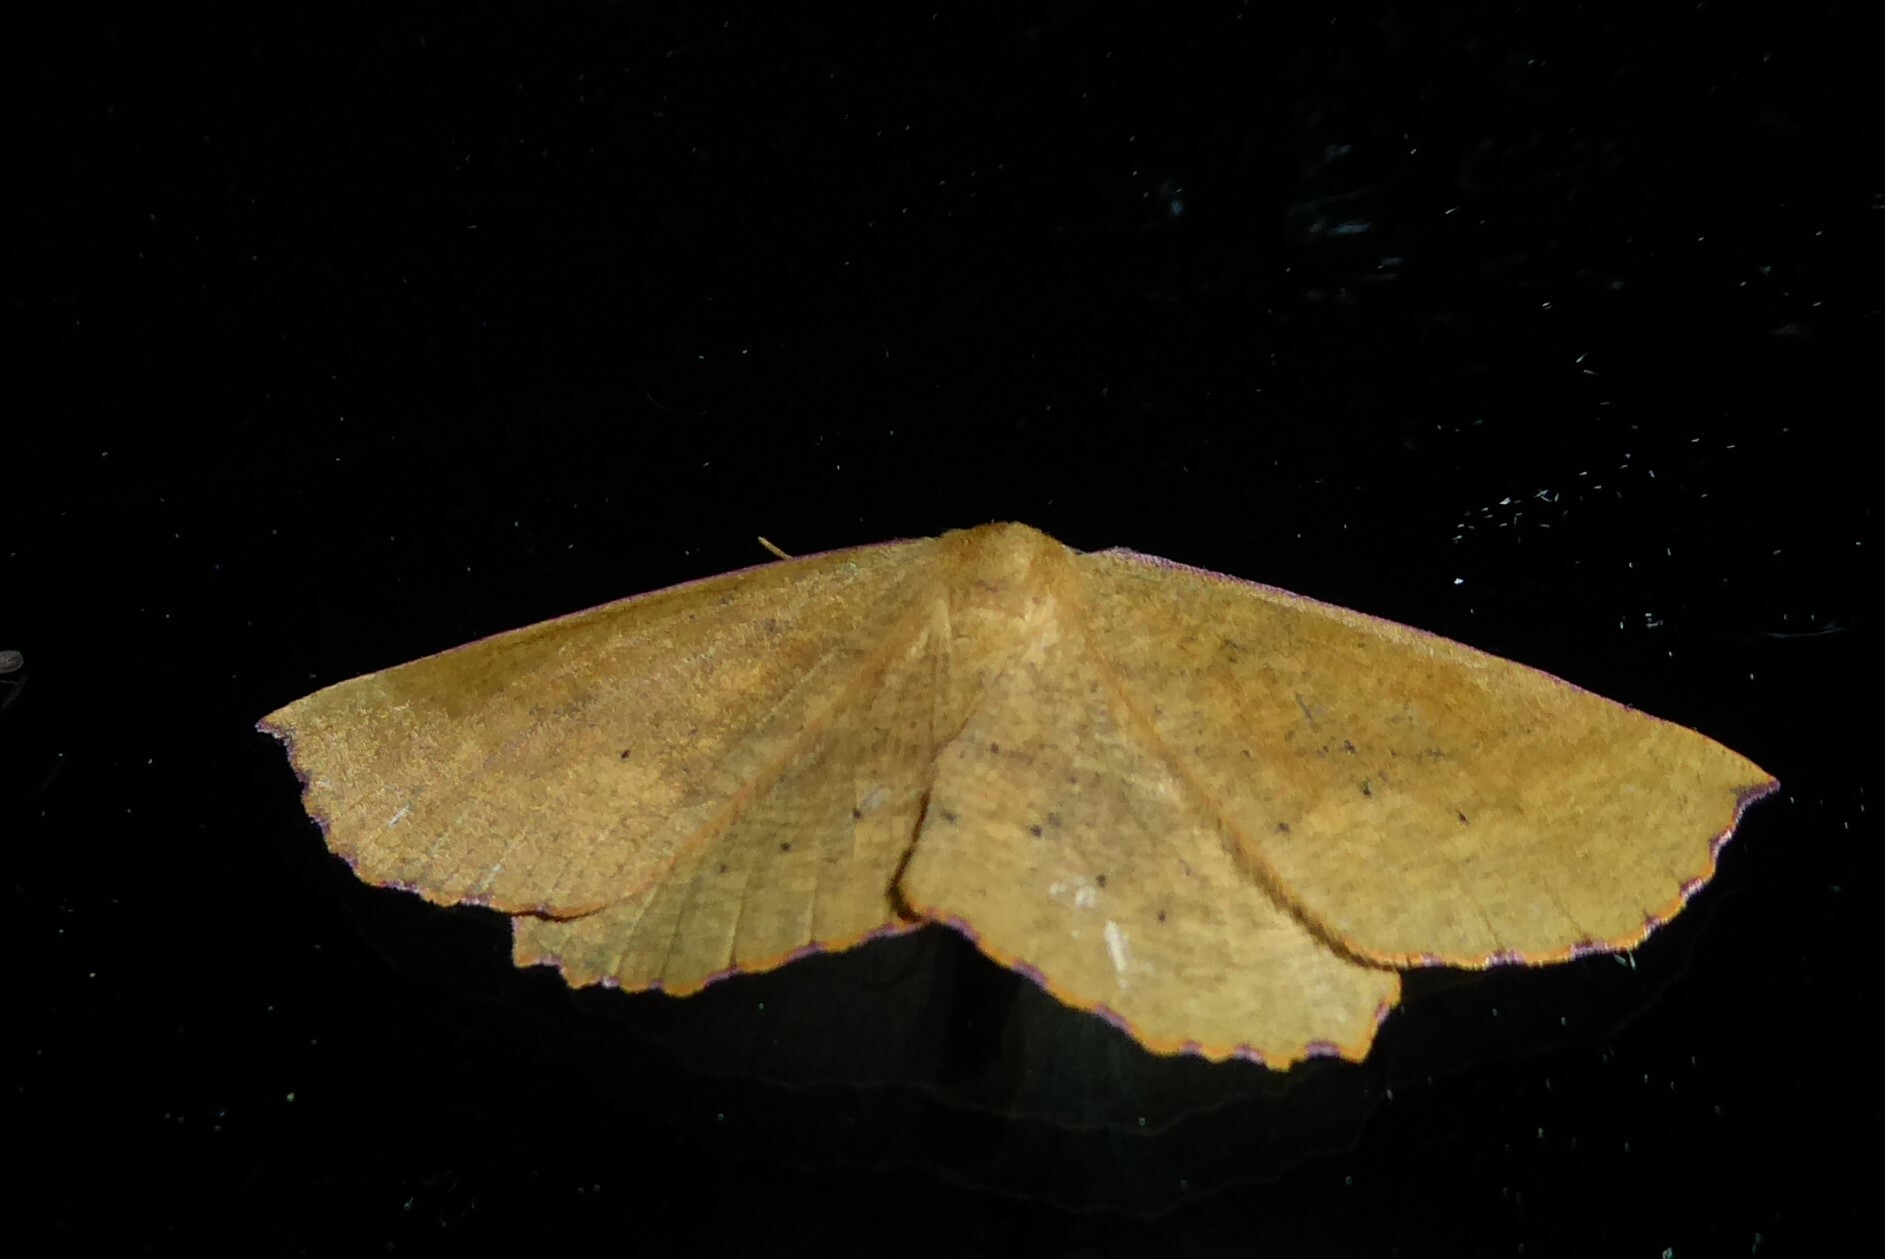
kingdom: Animalia
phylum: Arthropoda
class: Insecta
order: Lepidoptera
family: Geometridae
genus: Xyridacma
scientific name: Xyridacma alectoraria
